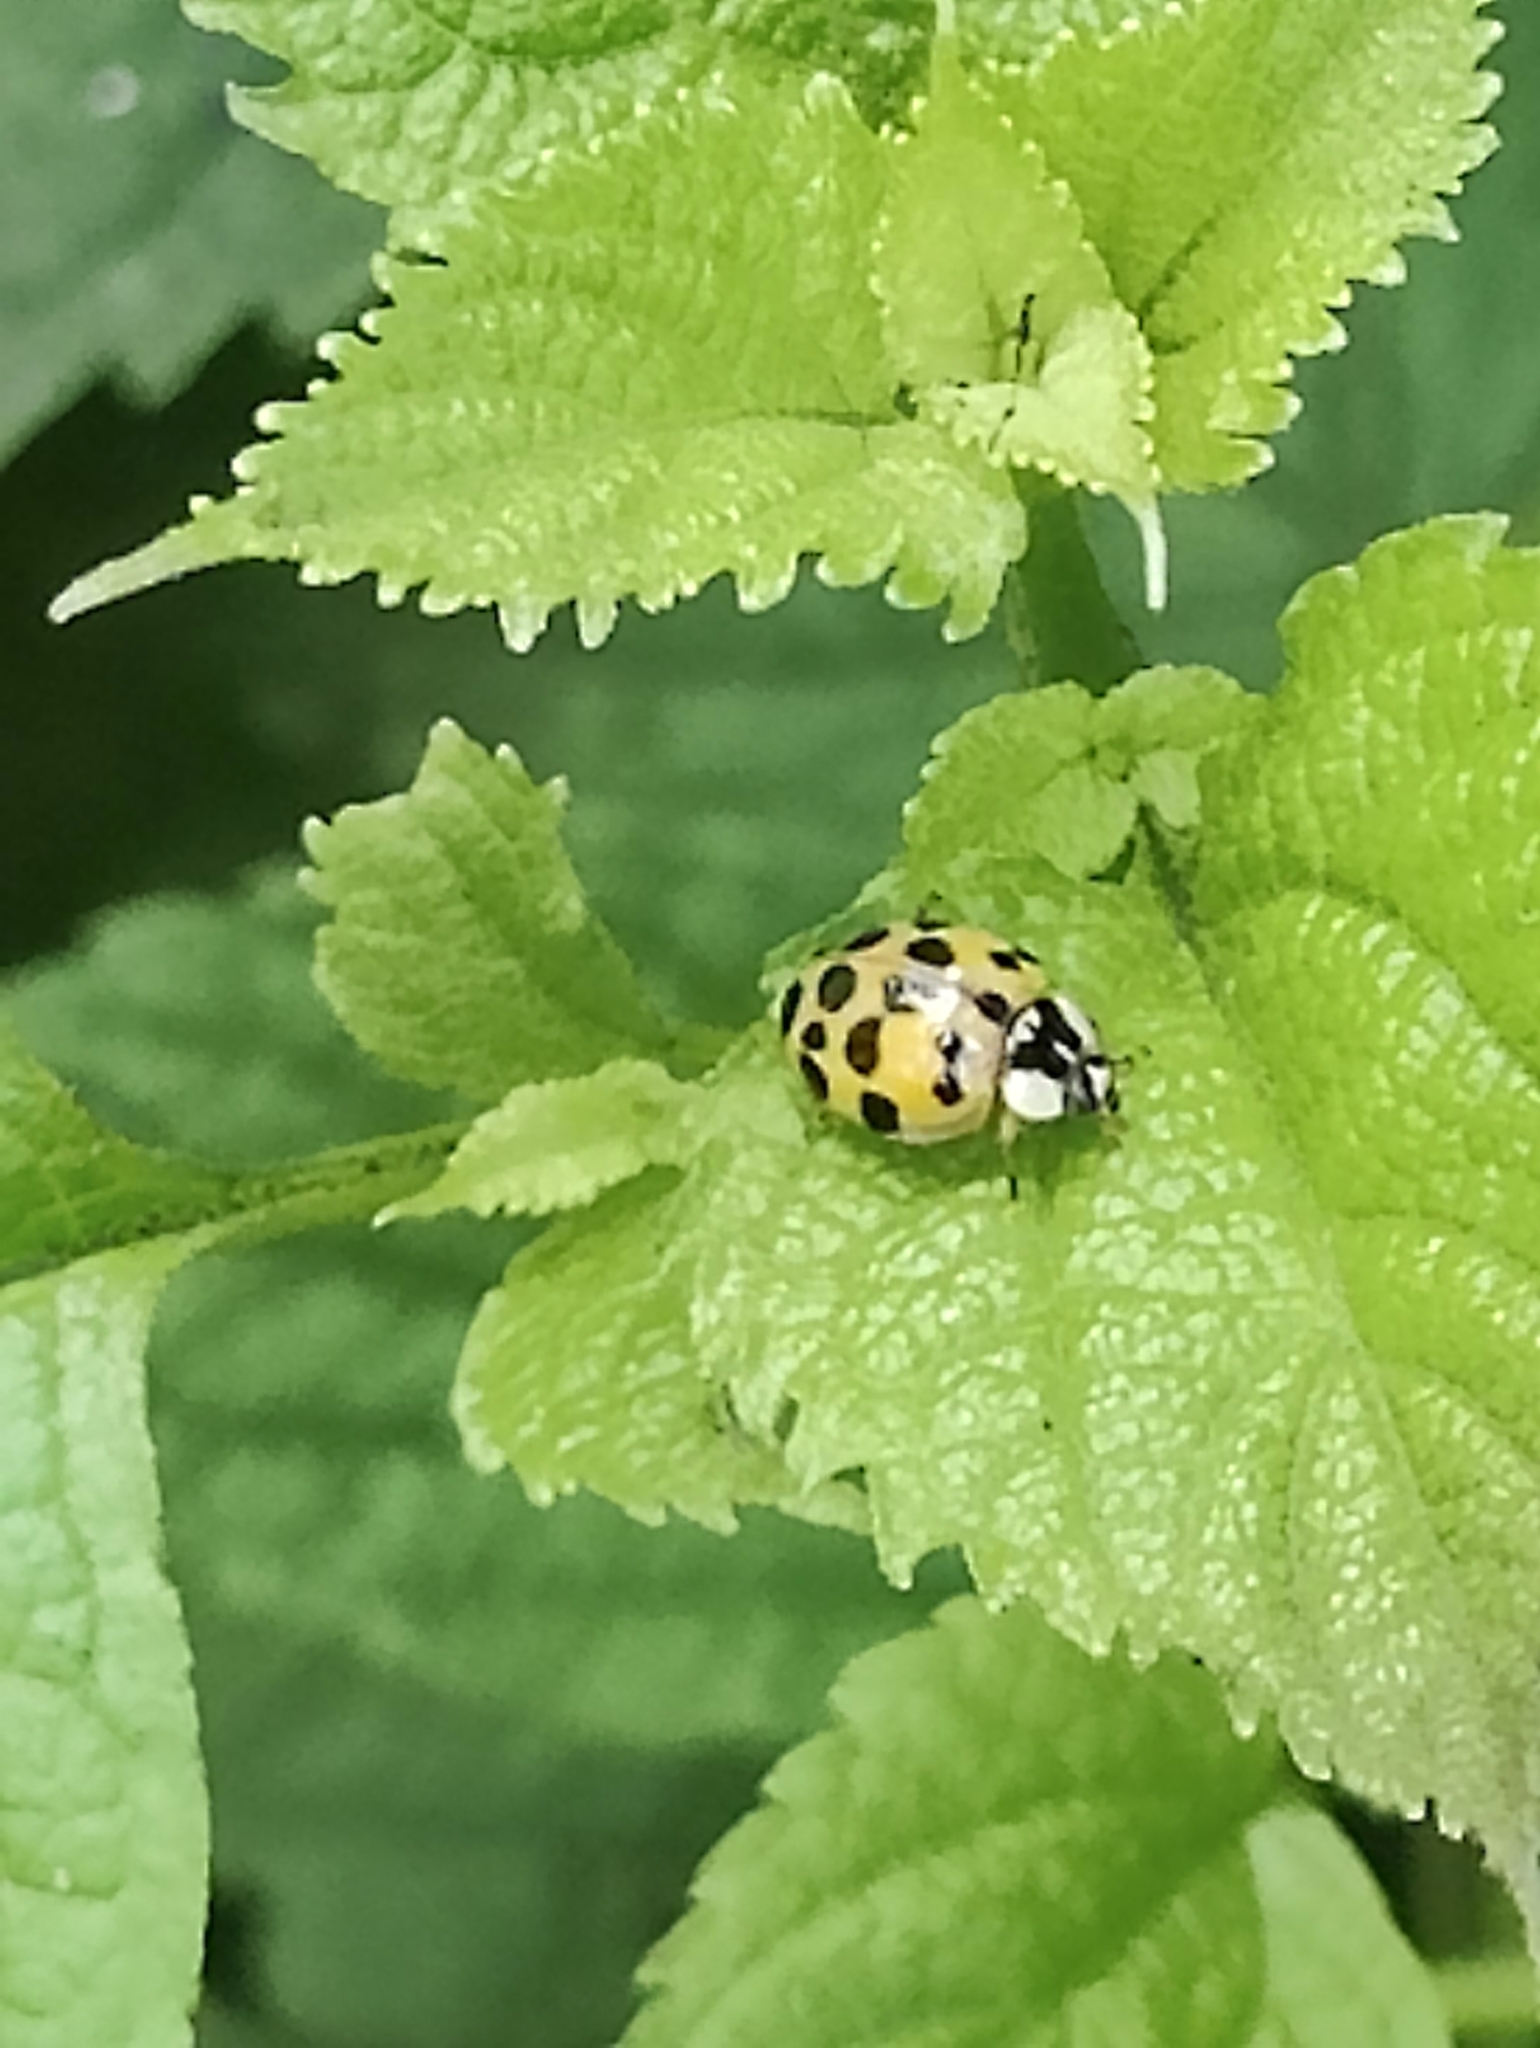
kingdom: Animalia
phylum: Arthropoda
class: Insecta
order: Coleoptera
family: Coccinellidae
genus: Harmonia
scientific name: Harmonia axyridis
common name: Harlequin ladybird
